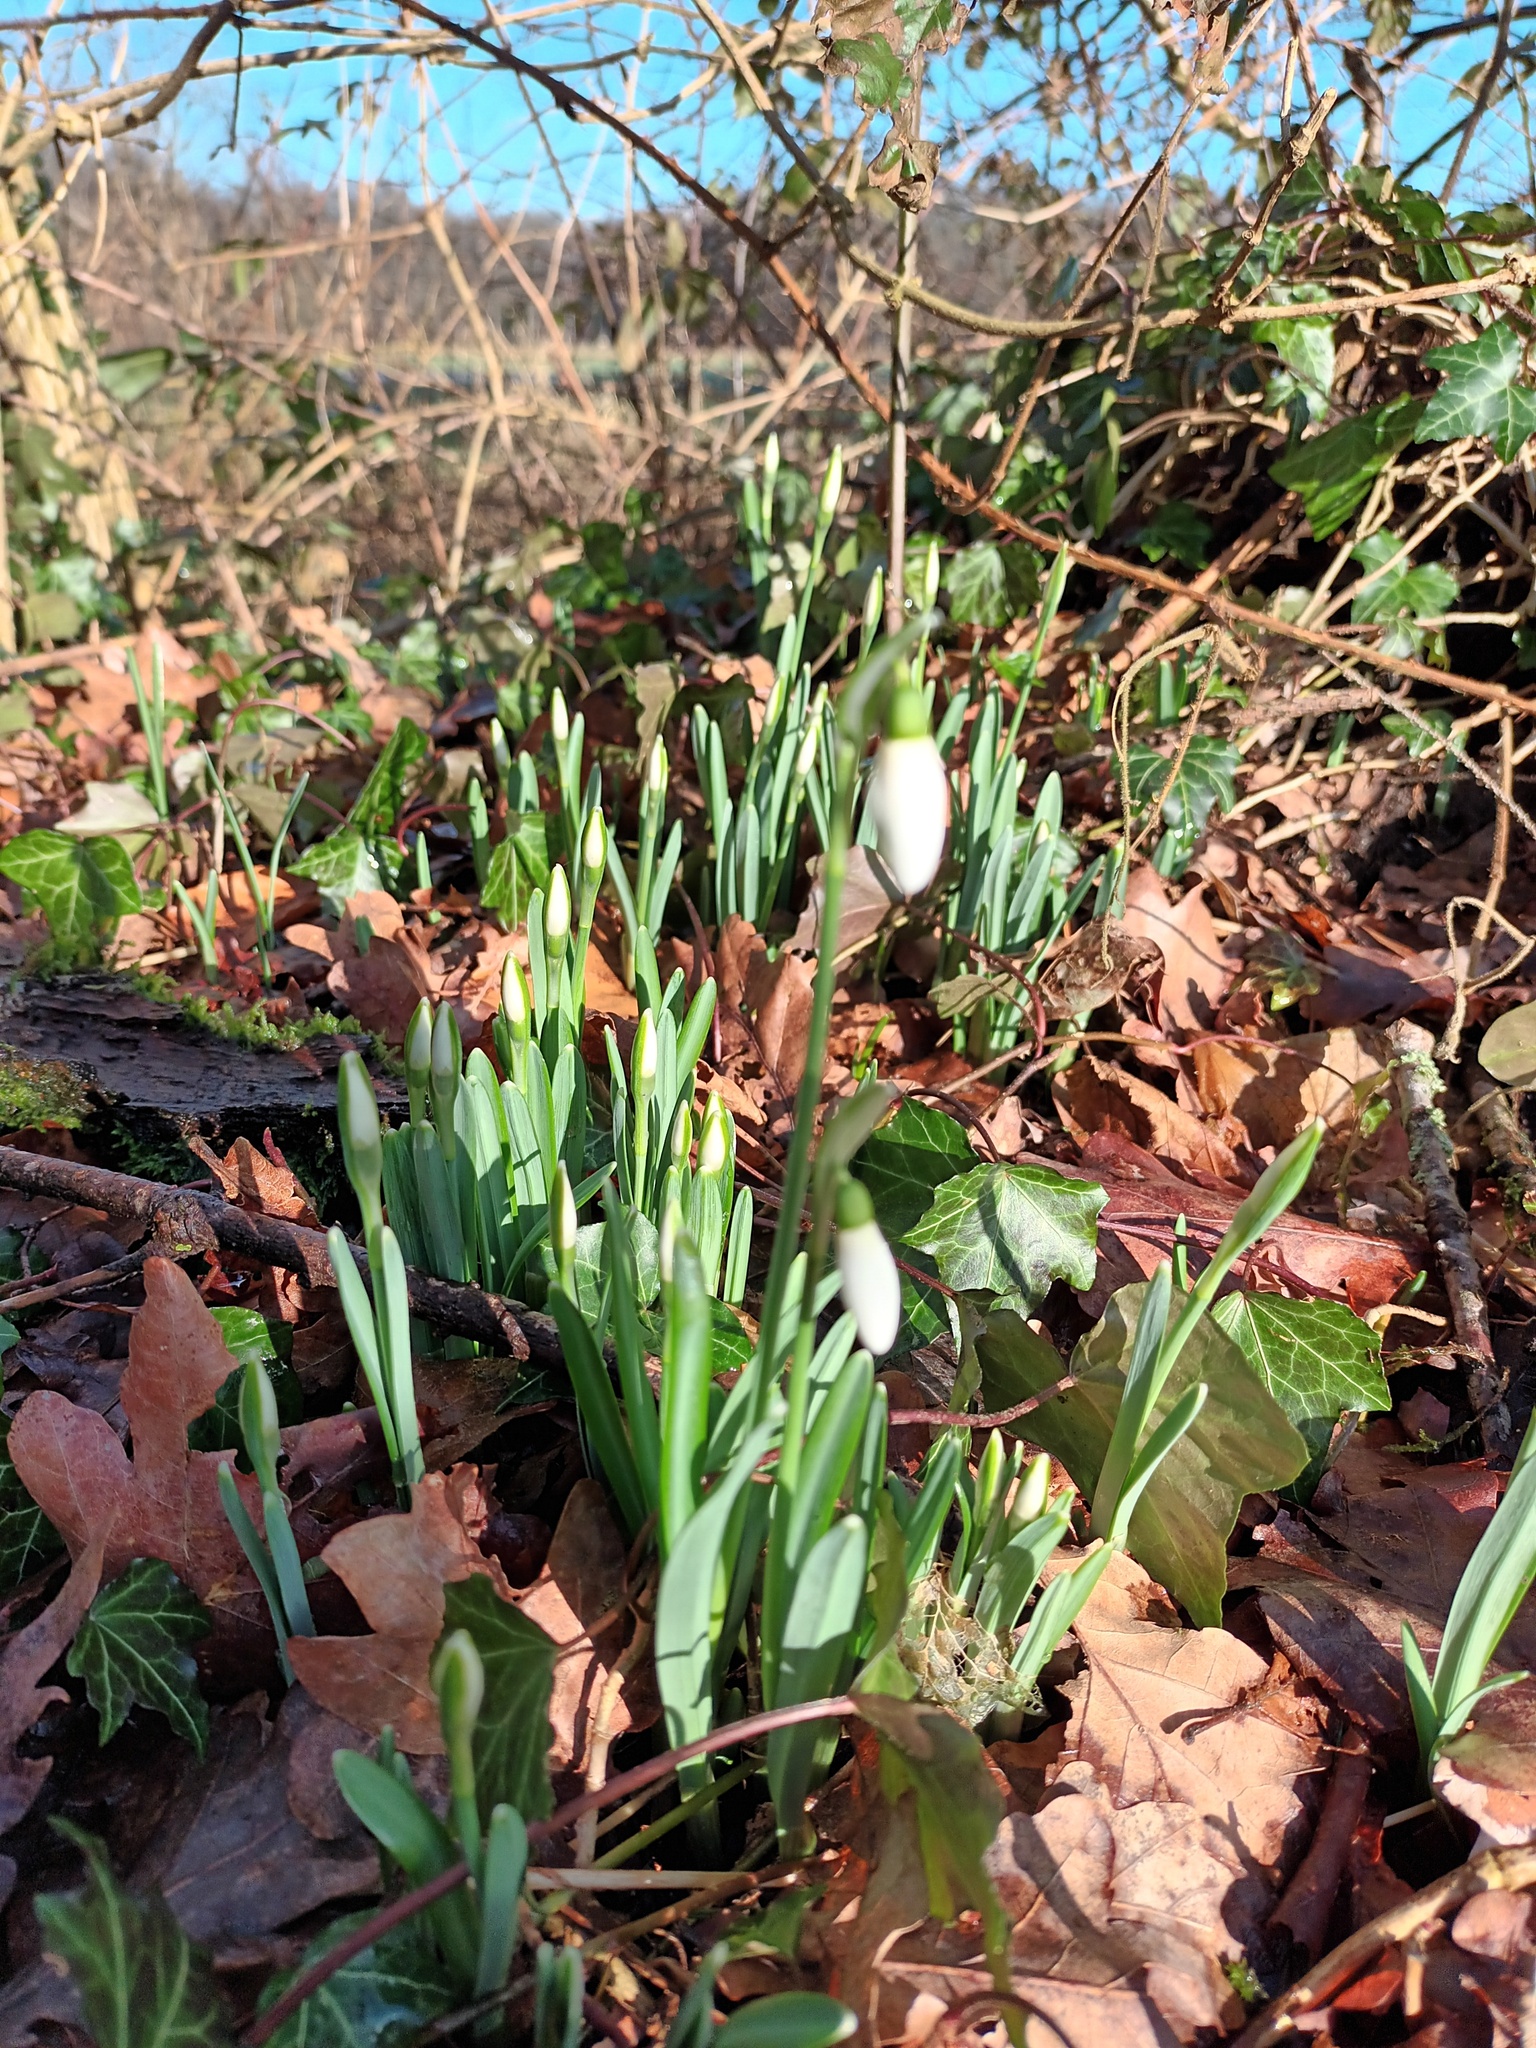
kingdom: Plantae
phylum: Tracheophyta
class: Liliopsida
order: Asparagales
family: Amaryllidaceae
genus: Galanthus
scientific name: Galanthus nivalis
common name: Snowdrop
